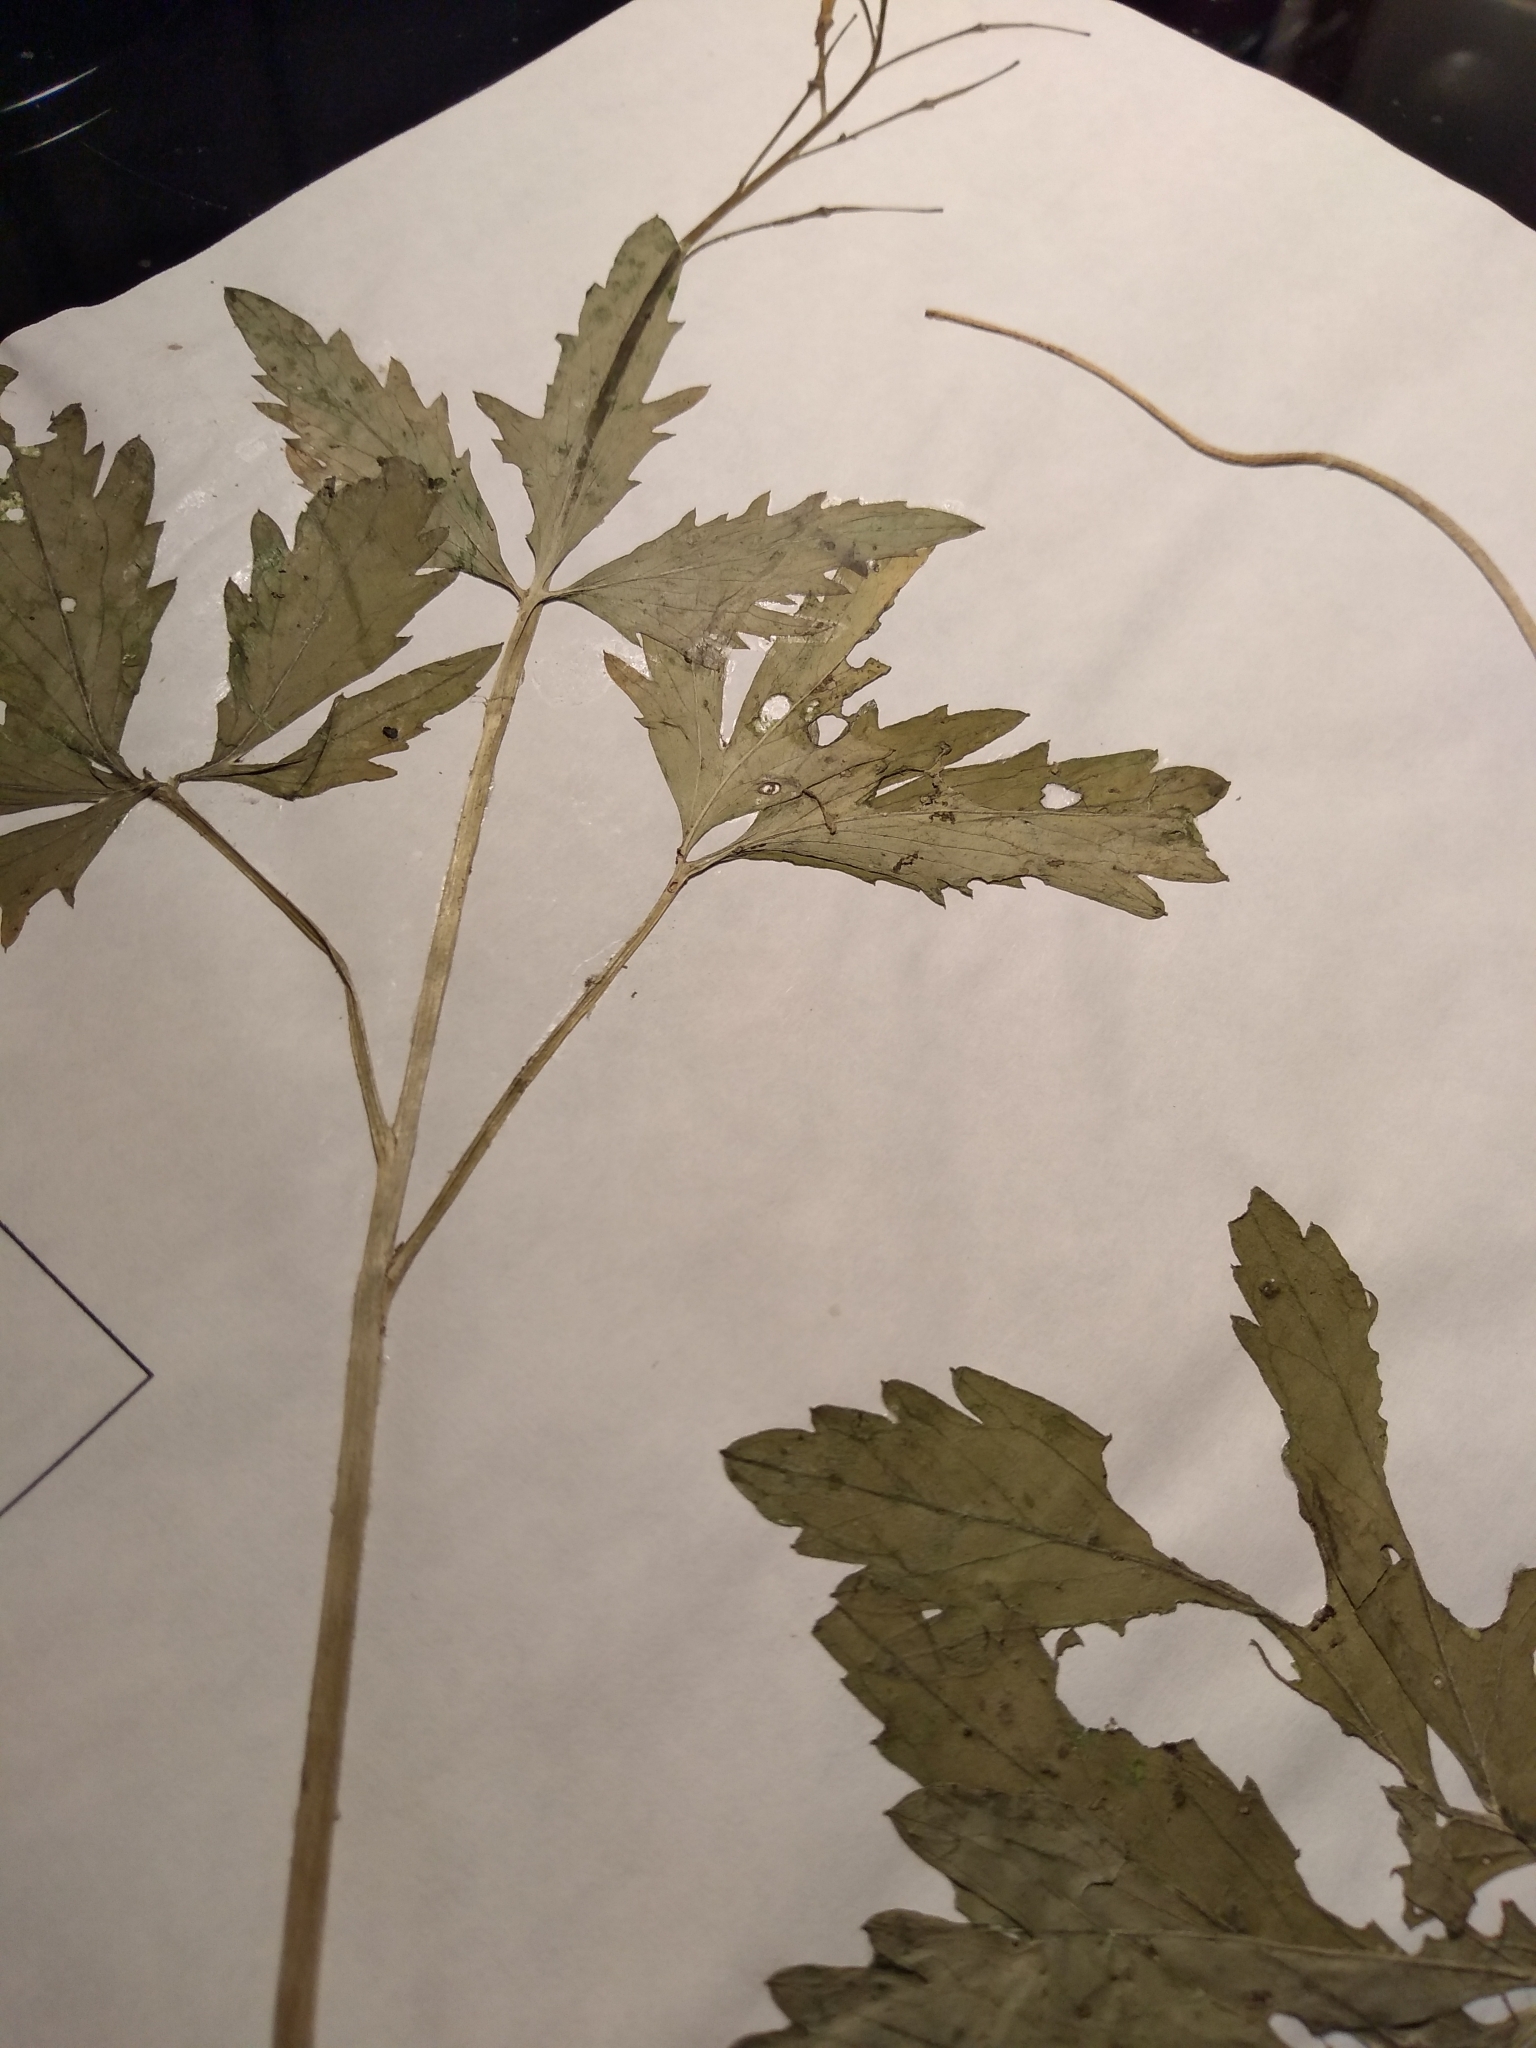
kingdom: Plantae
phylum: Tracheophyta
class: Magnoliopsida
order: Brassicales
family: Brassicaceae
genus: Cardamine
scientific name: Cardamine maxima
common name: Great bittercress
